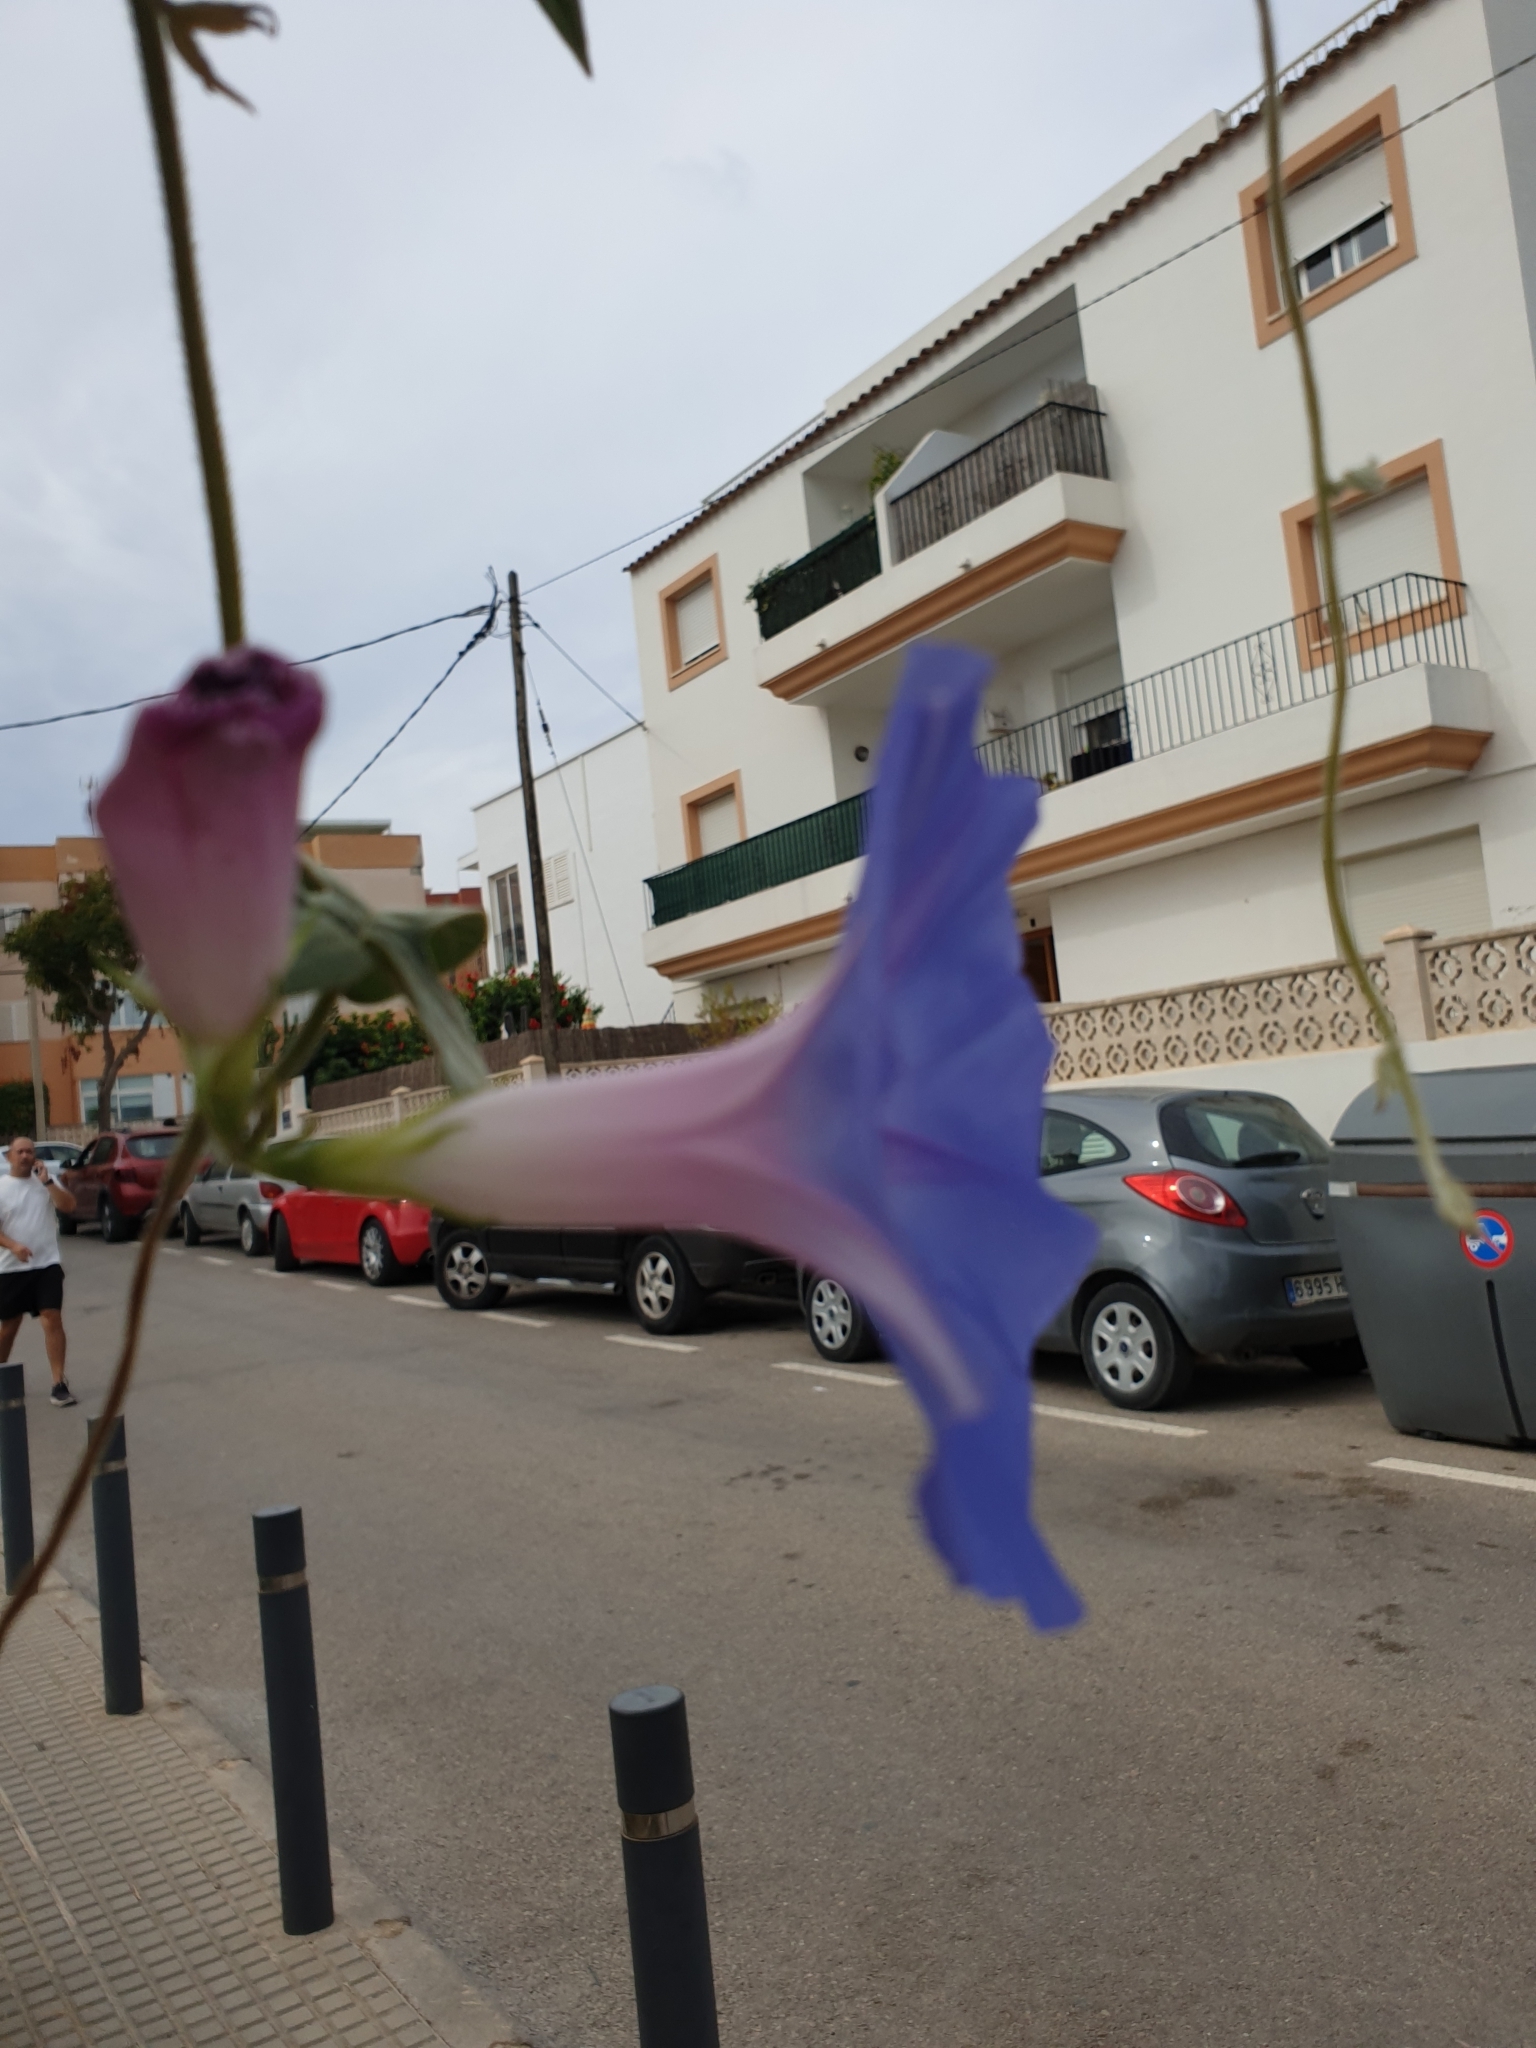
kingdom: Plantae
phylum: Tracheophyta
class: Magnoliopsida
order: Solanales
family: Convolvulaceae
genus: Ipomoea
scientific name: Ipomoea indica
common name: Blue dawnflower
